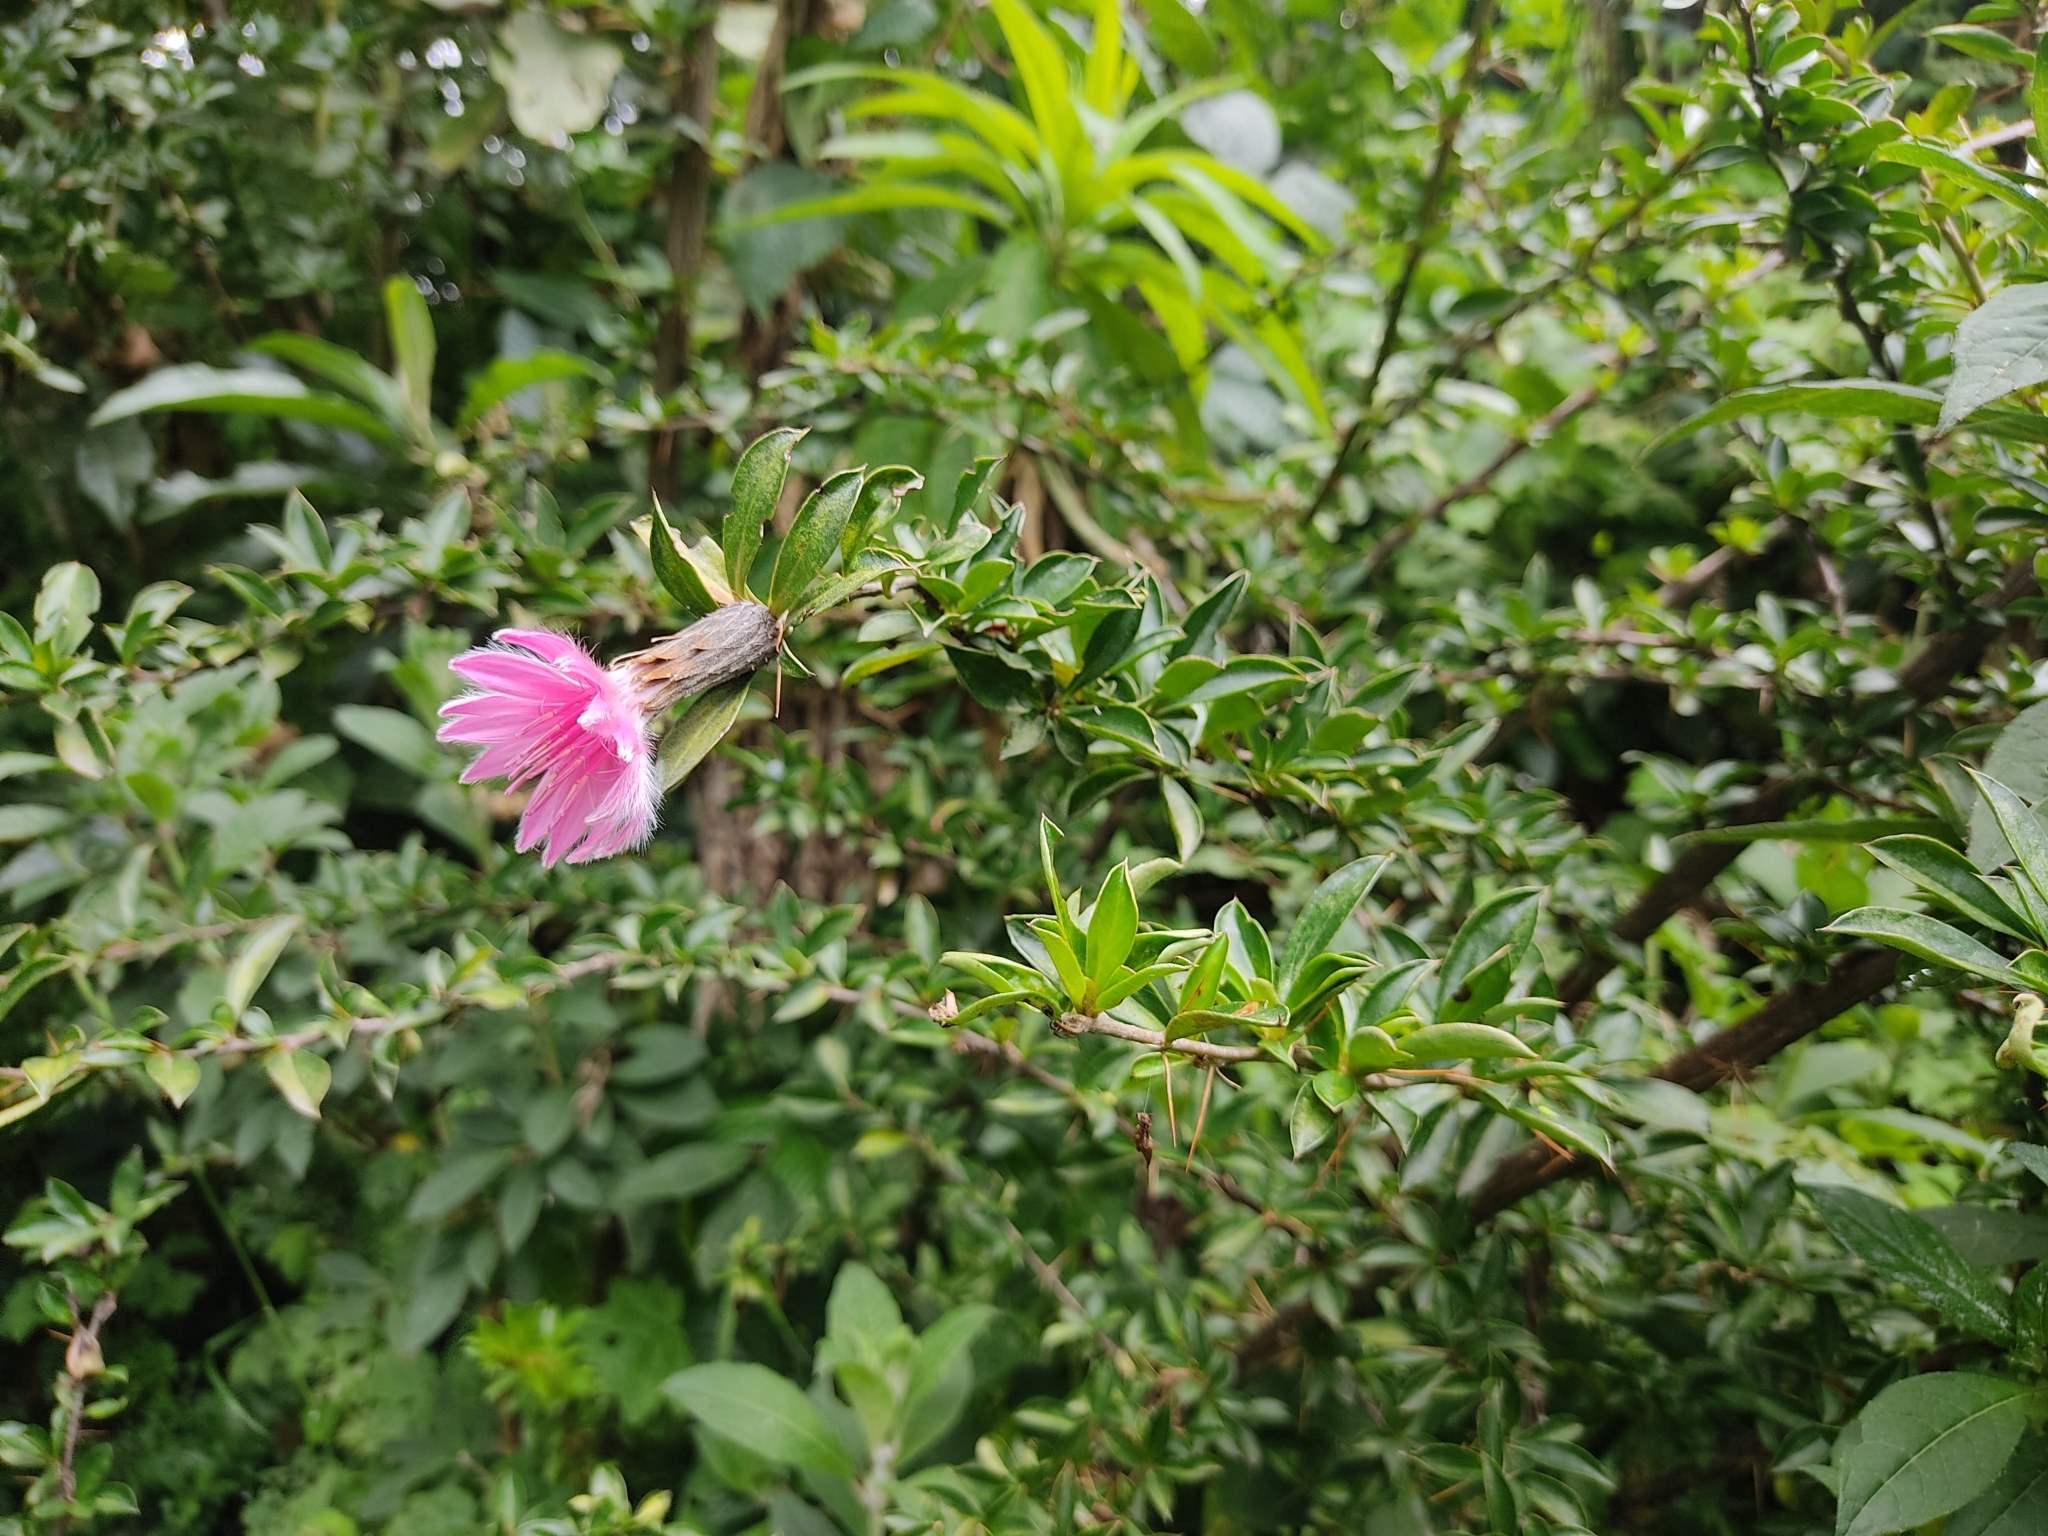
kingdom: Plantae
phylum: Tracheophyta
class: Magnoliopsida
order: Asterales
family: Asteraceae
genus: Barnadesia
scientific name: Barnadesia arborea
